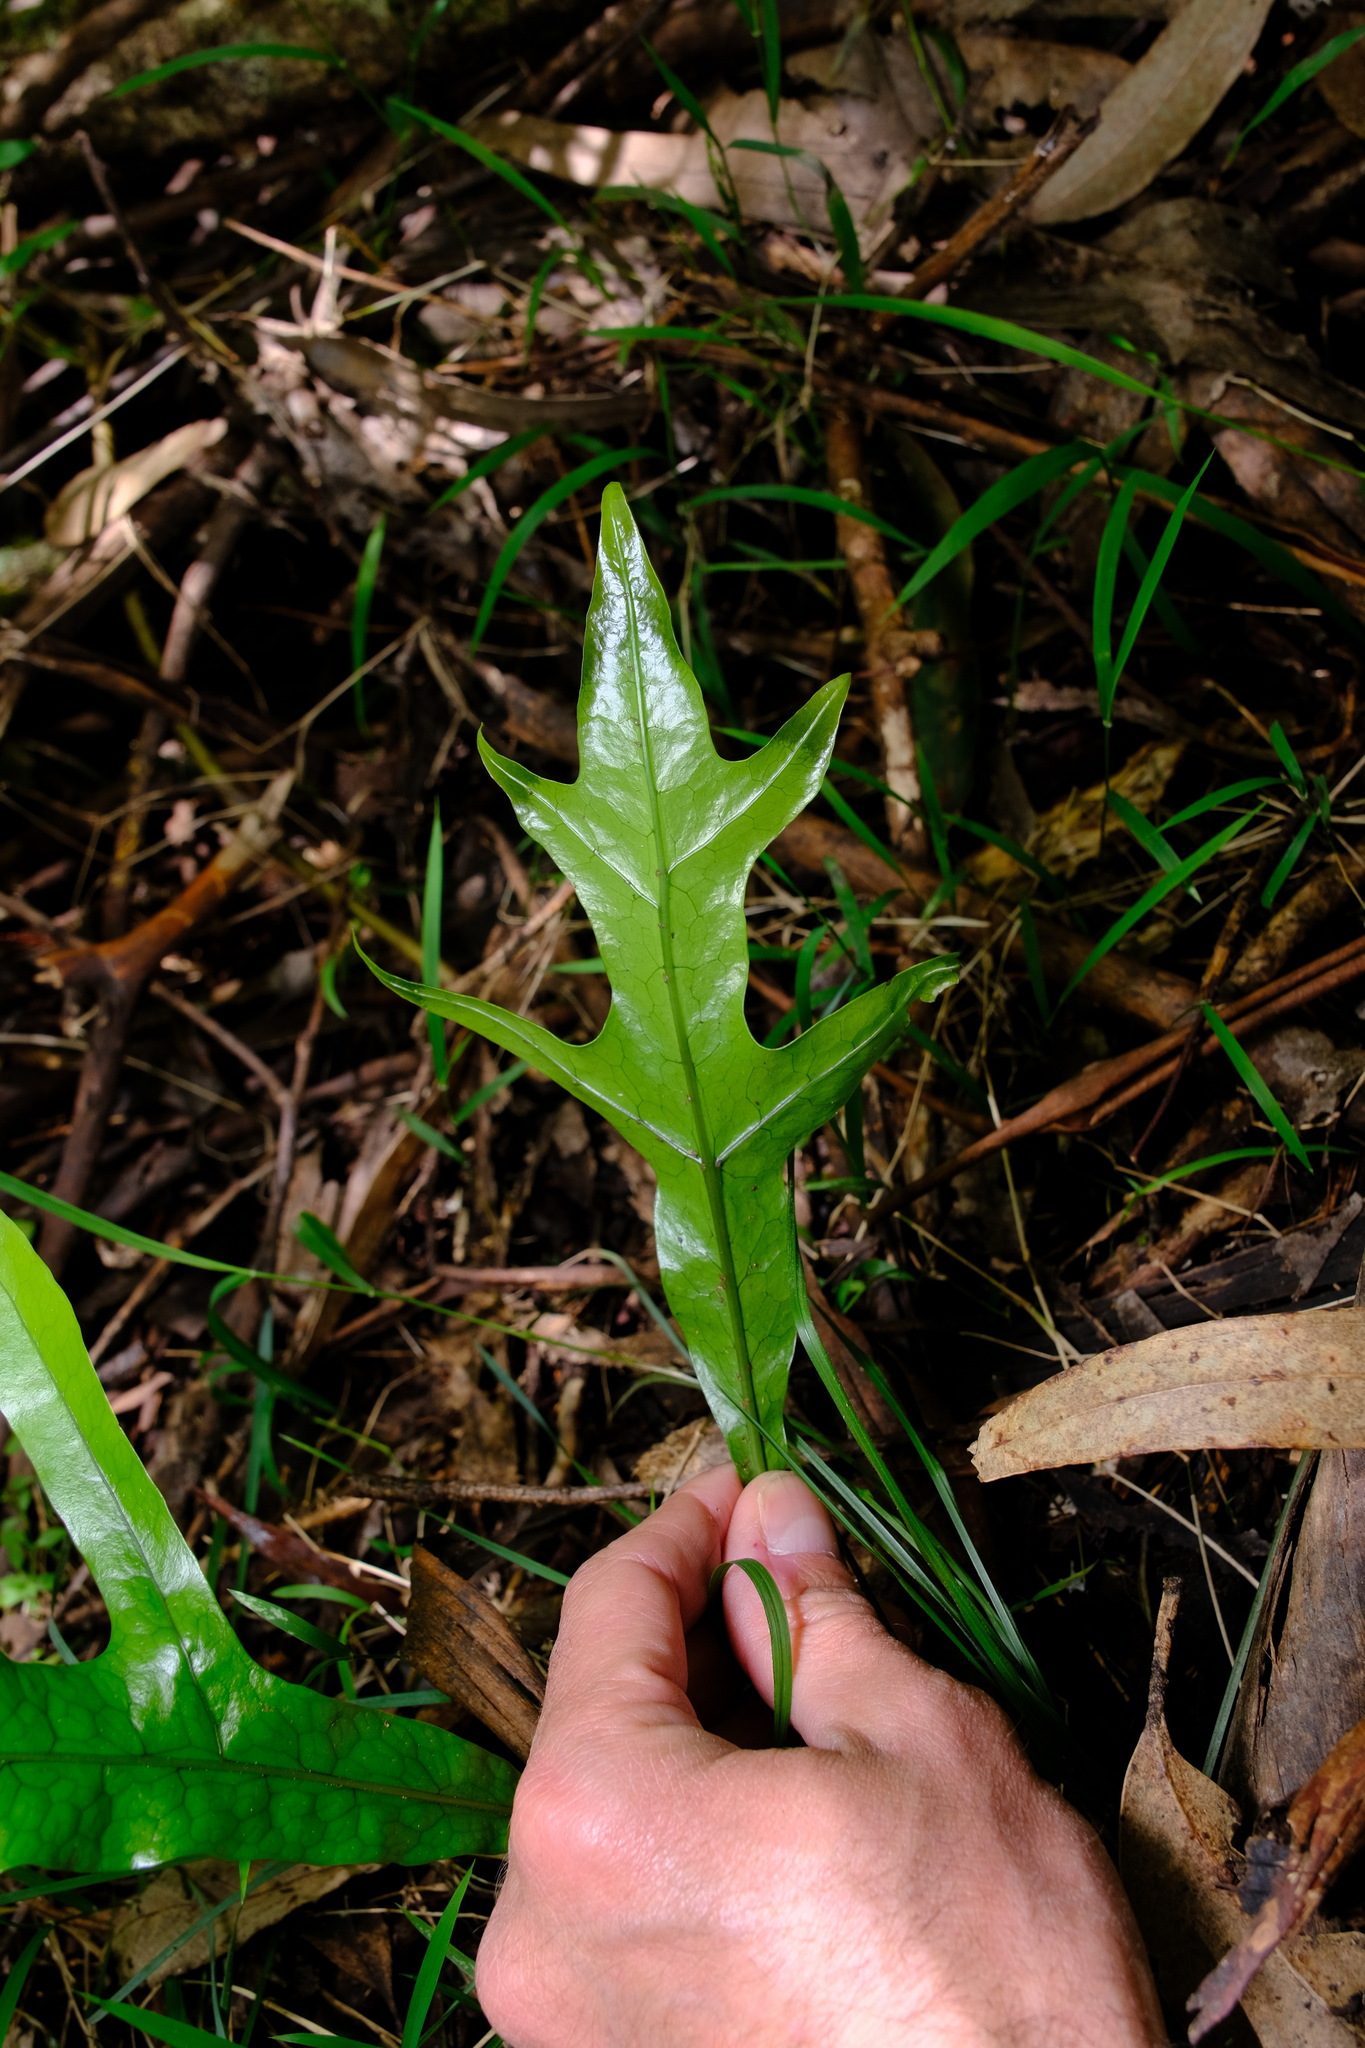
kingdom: Plantae
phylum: Tracheophyta
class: Polypodiopsida
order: Polypodiales
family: Polypodiaceae
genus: Lecanopteris
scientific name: Lecanopteris pustulata
